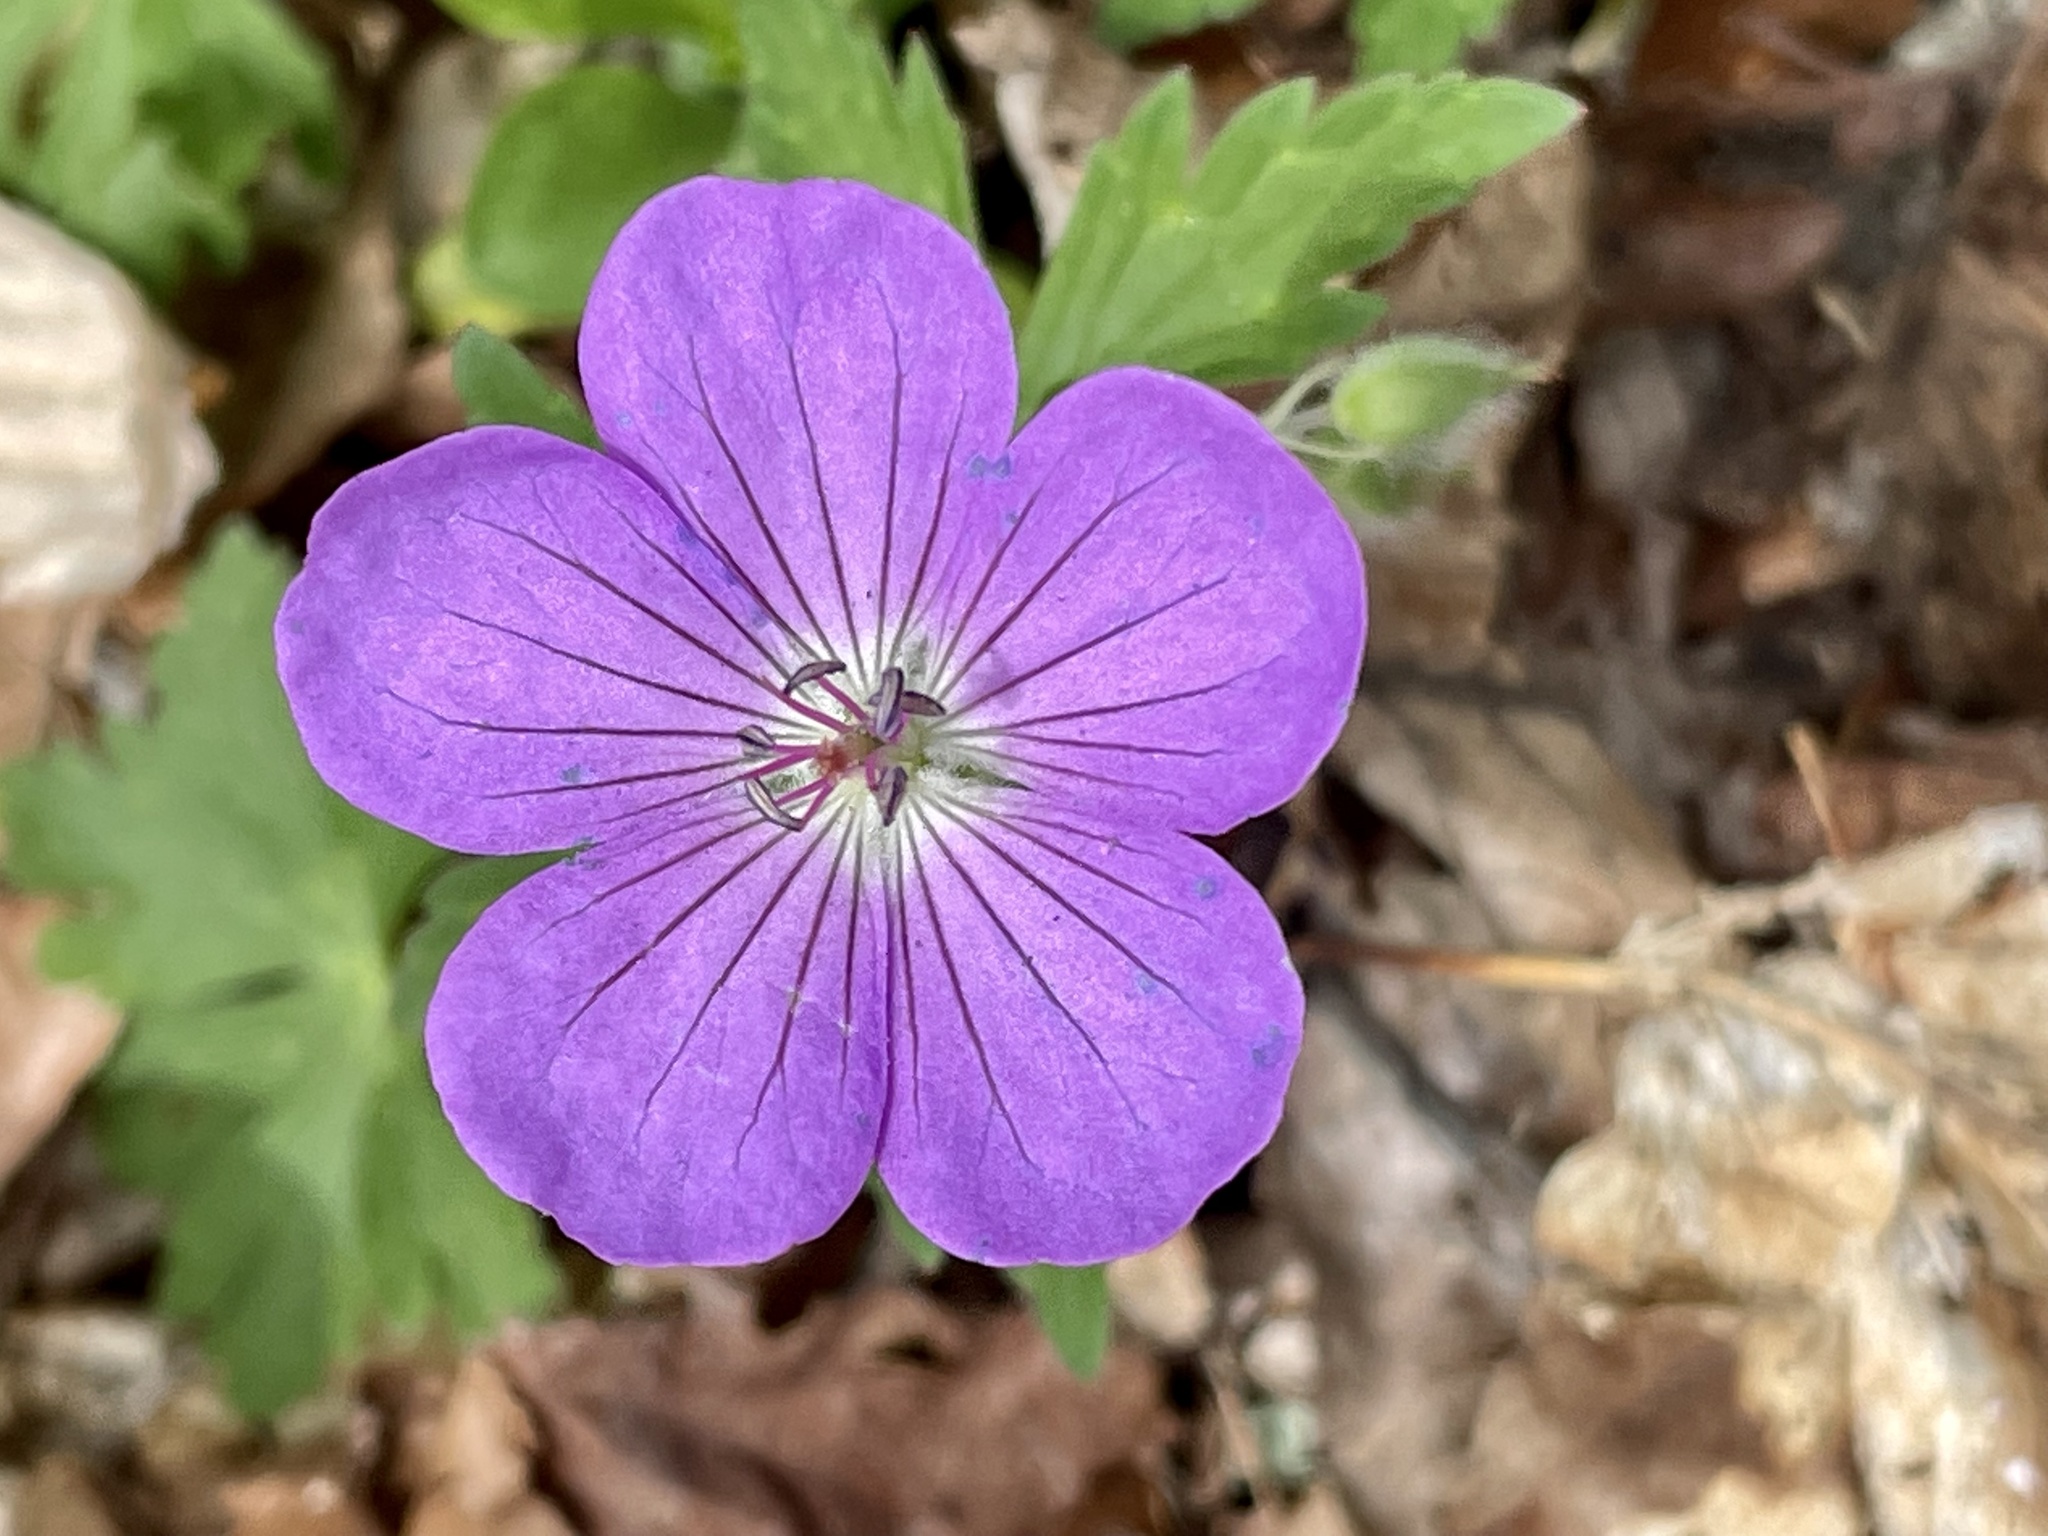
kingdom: Plantae
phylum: Tracheophyta
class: Magnoliopsida
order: Geraniales
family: Geraniaceae
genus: Geranium
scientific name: Geranium maculatum
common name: Spotted geranium
